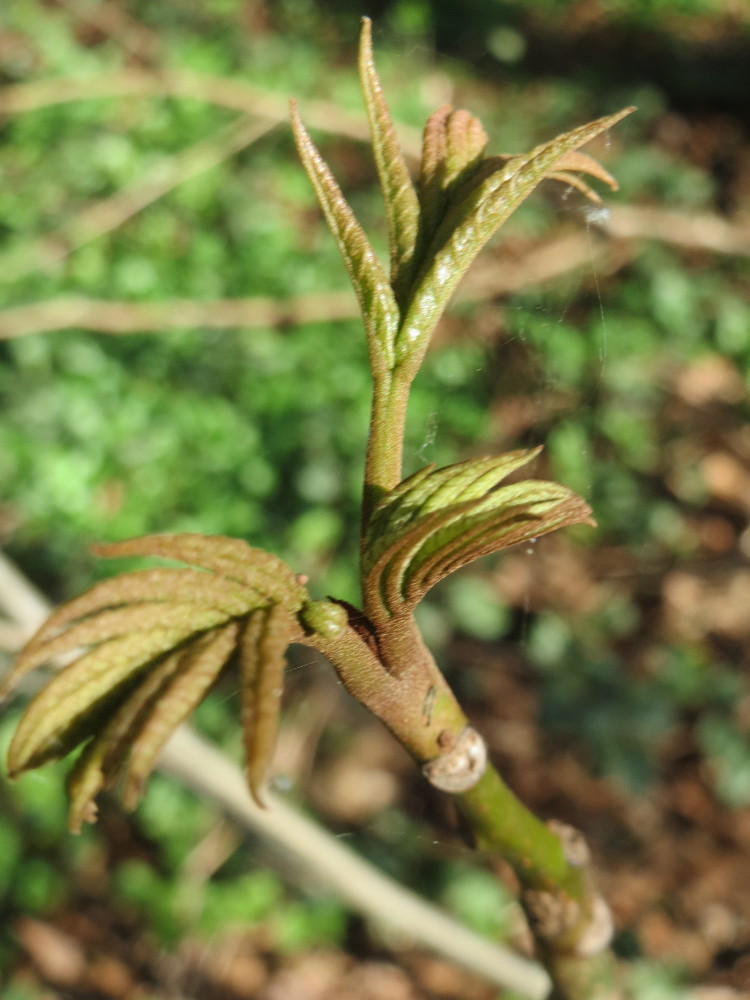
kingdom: Plantae
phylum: Tracheophyta
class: Magnoliopsida
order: Fagales
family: Juglandaceae
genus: Pterocarya
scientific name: Pterocarya fraxinifolia
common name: Caucasian wingnut
